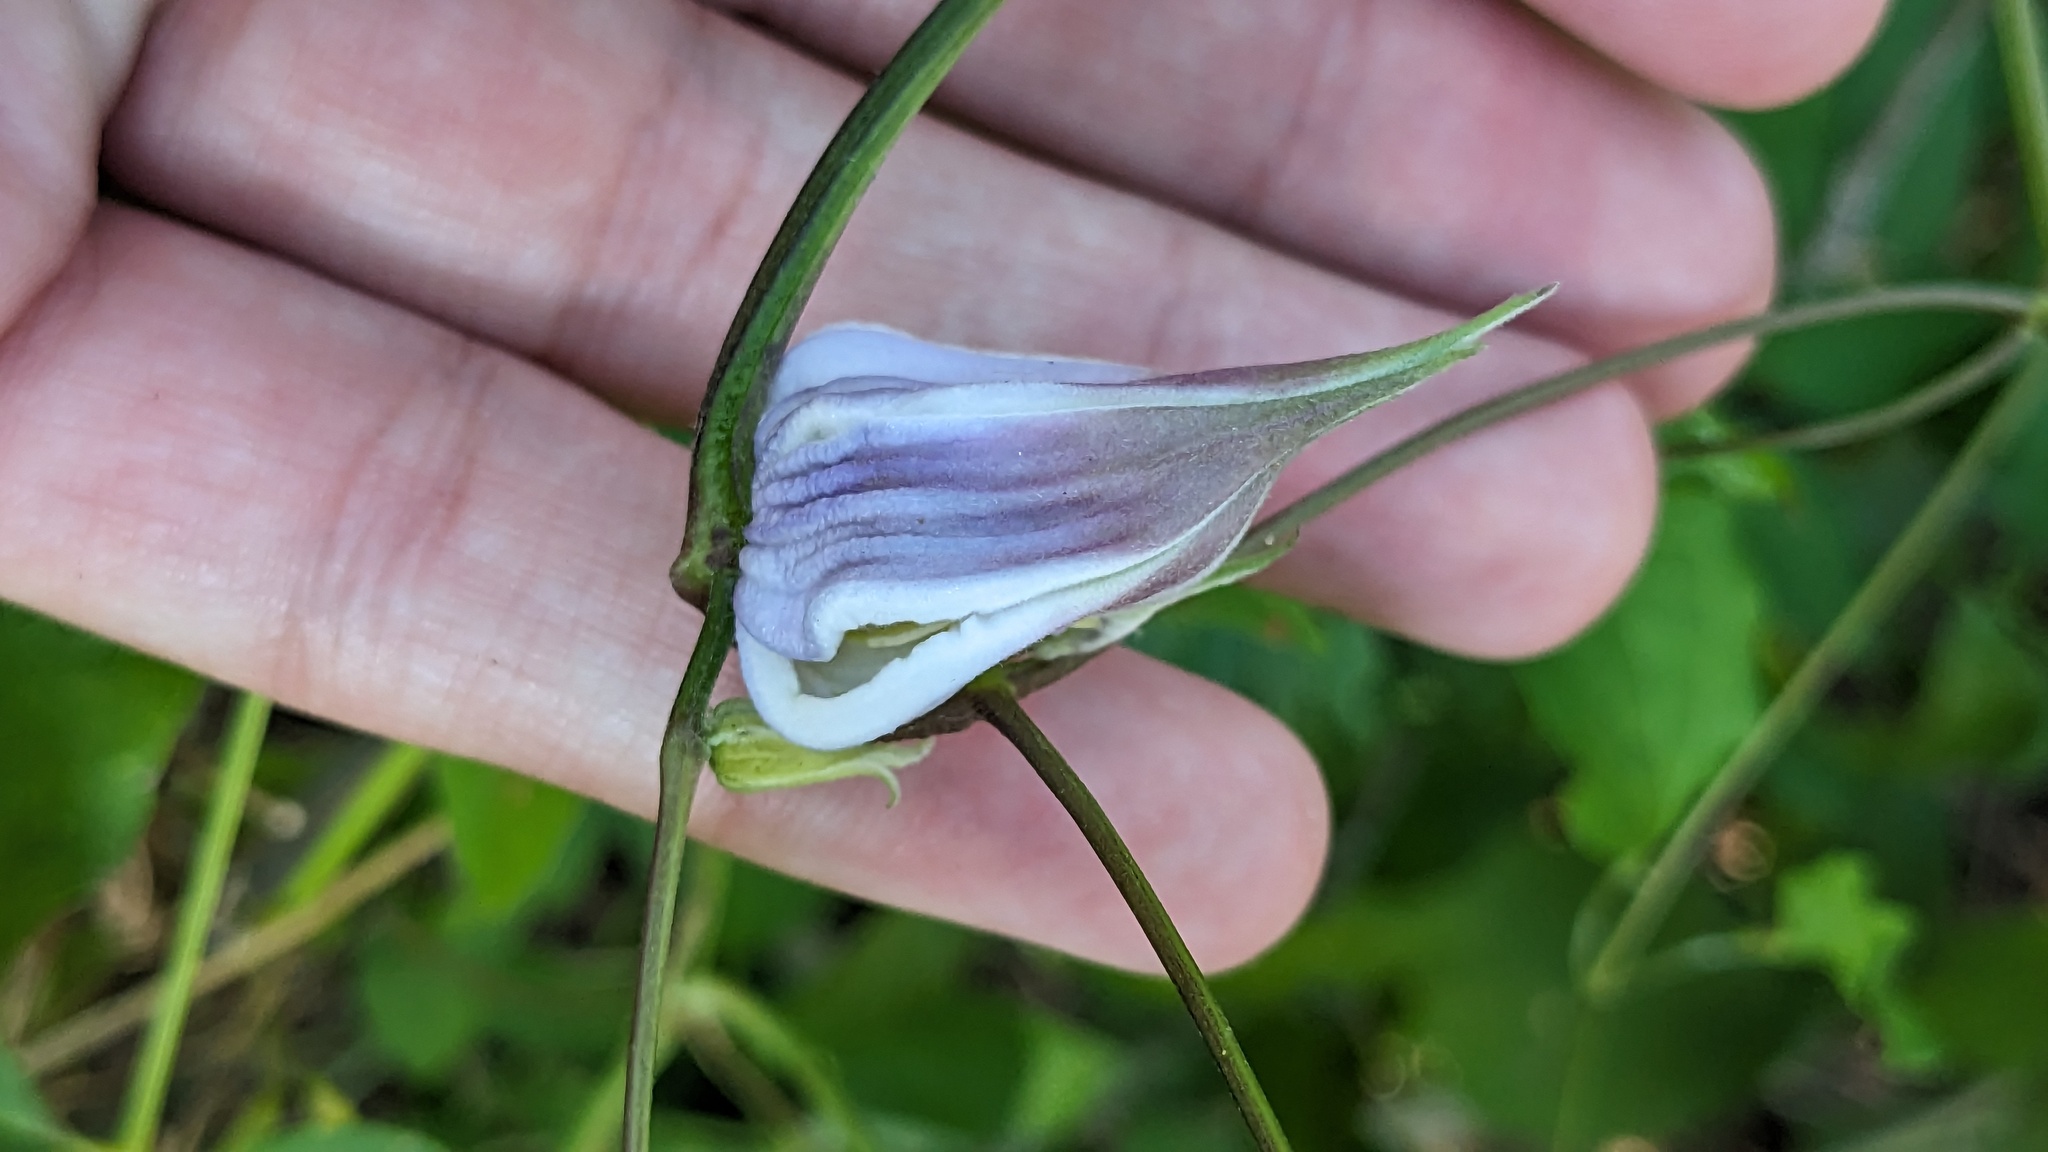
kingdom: Plantae
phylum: Tracheophyta
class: Magnoliopsida
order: Ranunculales
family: Ranunculaceae
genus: Clematis
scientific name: Clematis crispa
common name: Curly clematis
